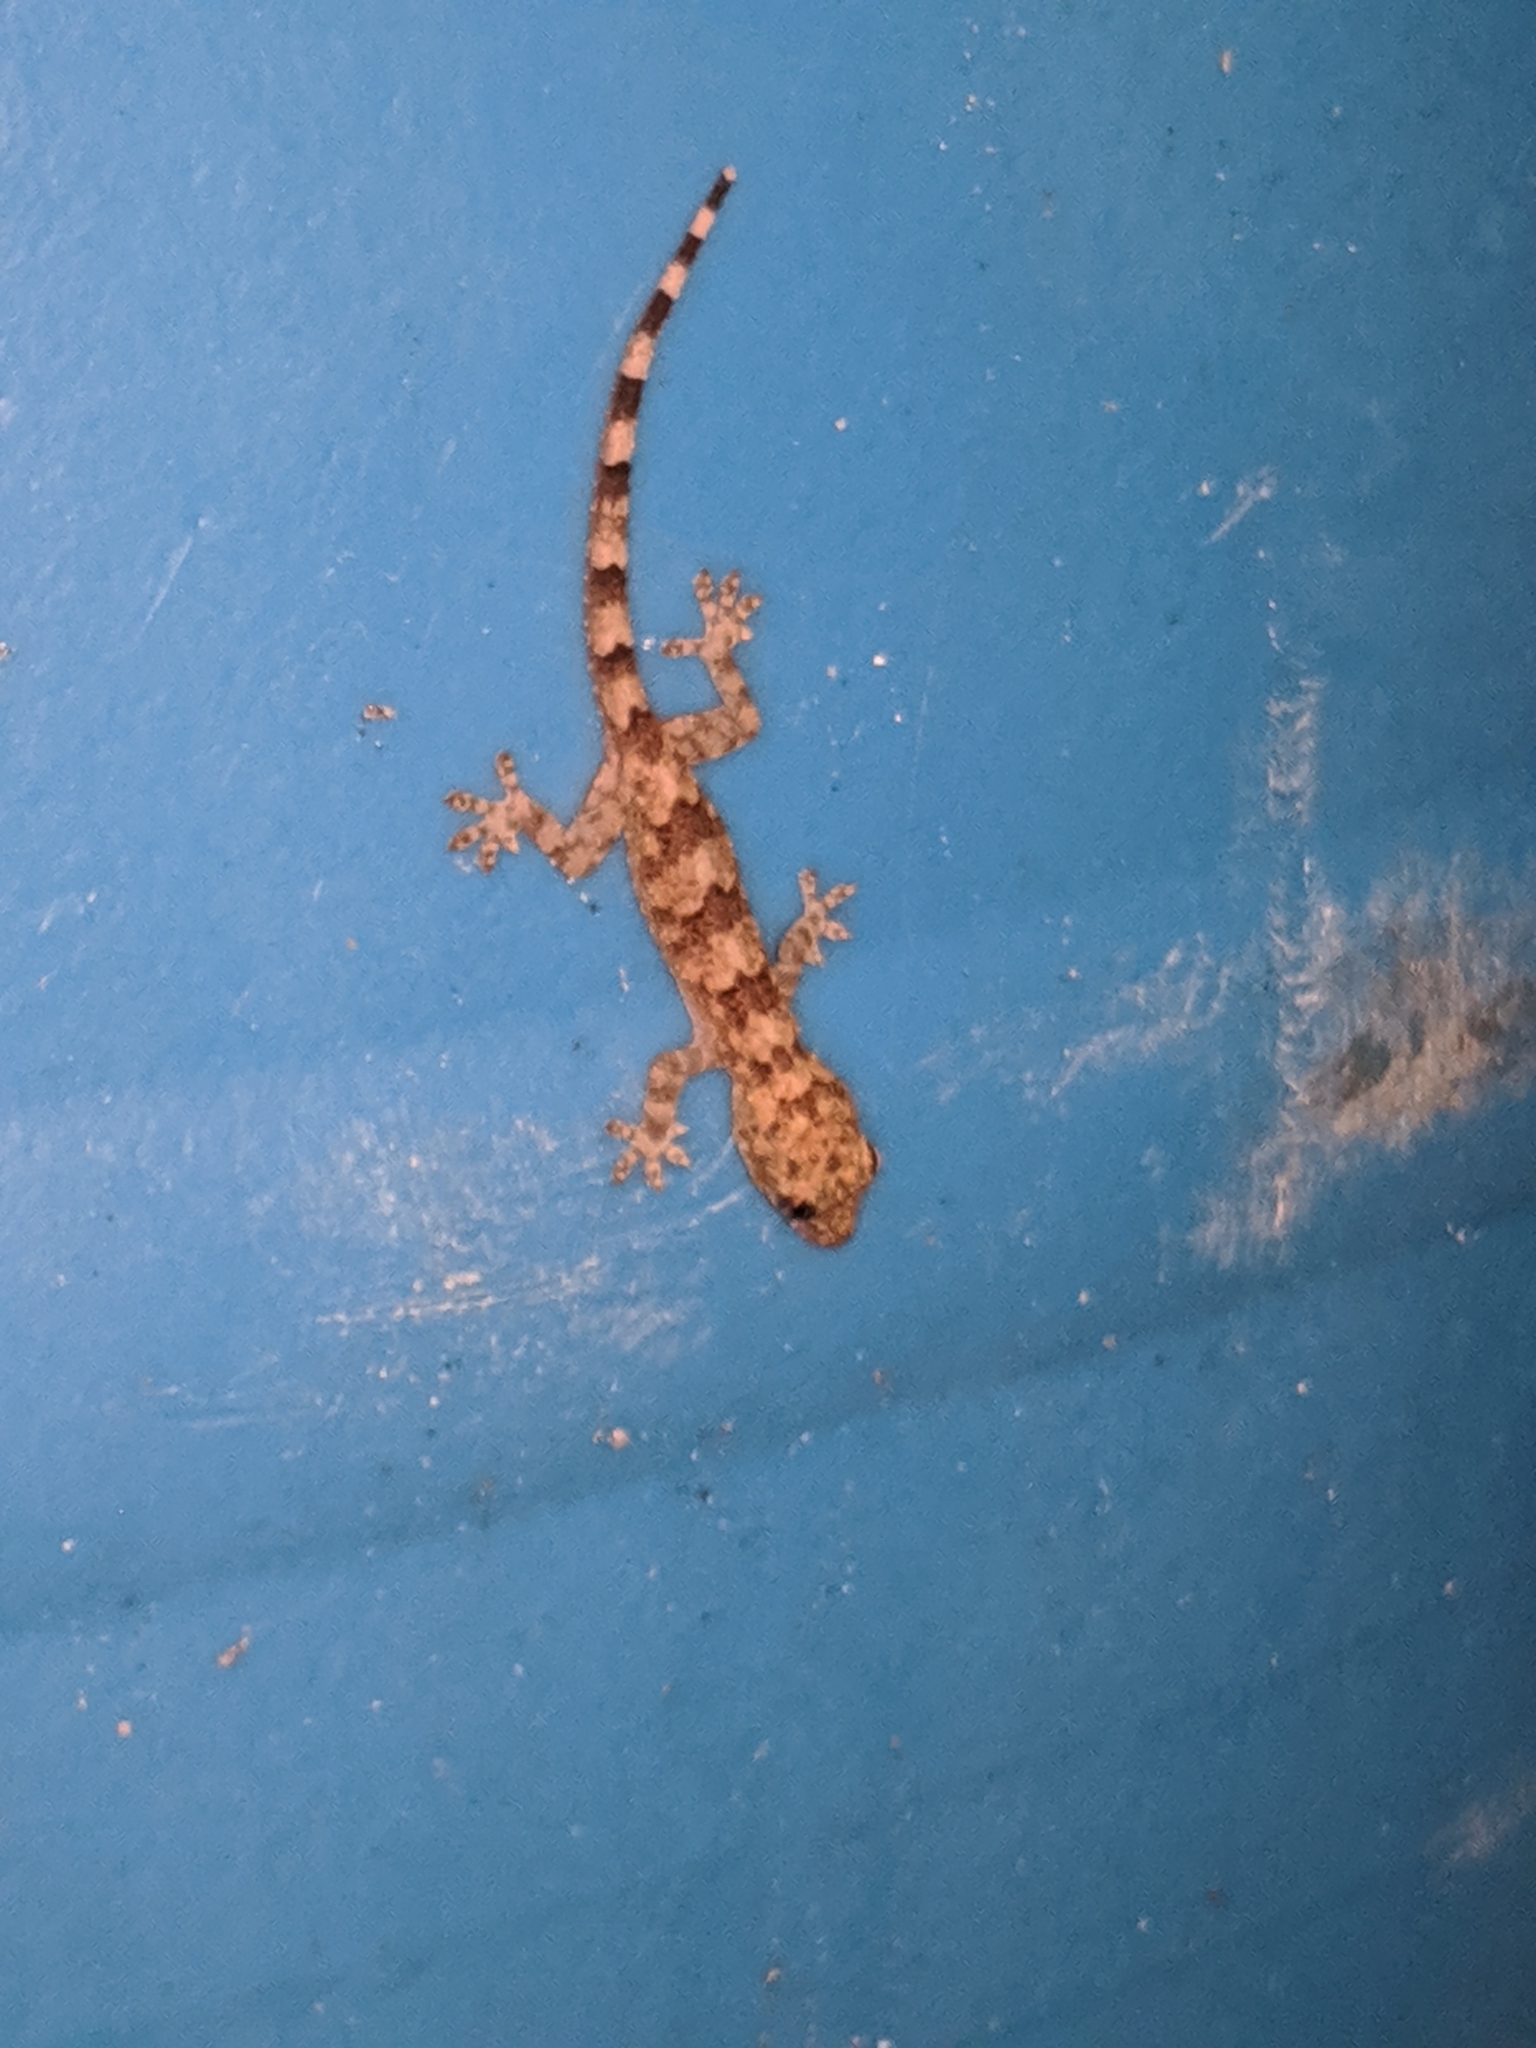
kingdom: Animalia
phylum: Chordata
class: Squamata
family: Gekkonidae
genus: Hemidactylus
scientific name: Hemidactylus mabouia
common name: House gecko
